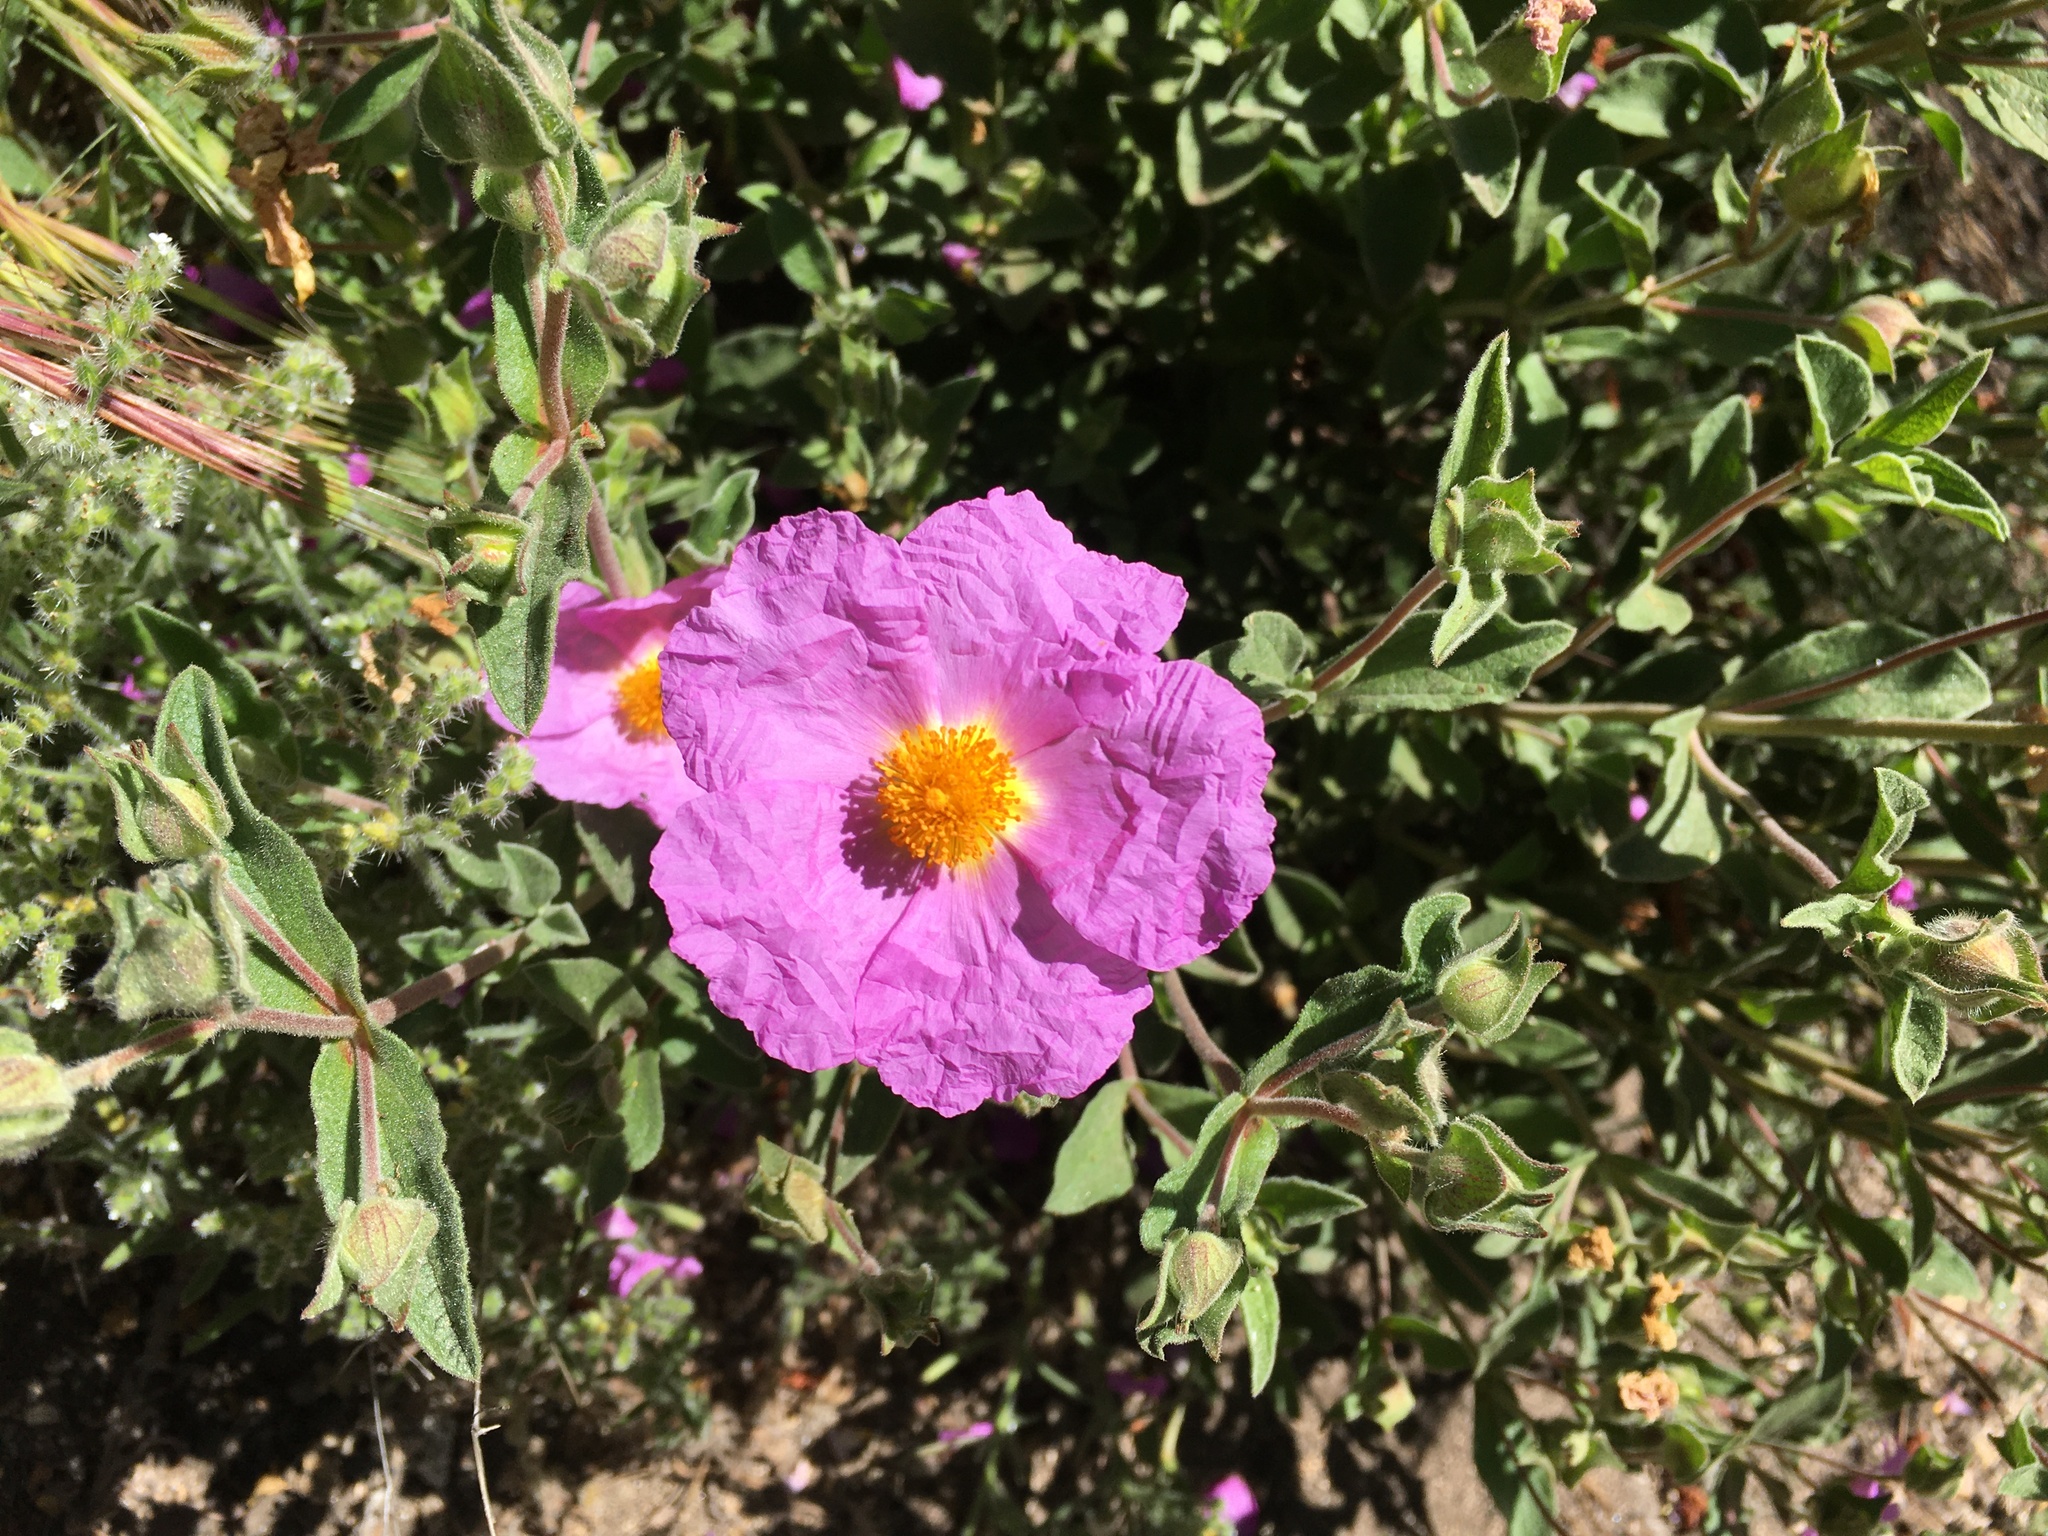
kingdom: Plantae
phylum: Tracheophyta
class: Magnoliopsida
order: Malvales
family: Cistaceae
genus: Cistus
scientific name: Cistus creticus
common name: Cretan rockrose
